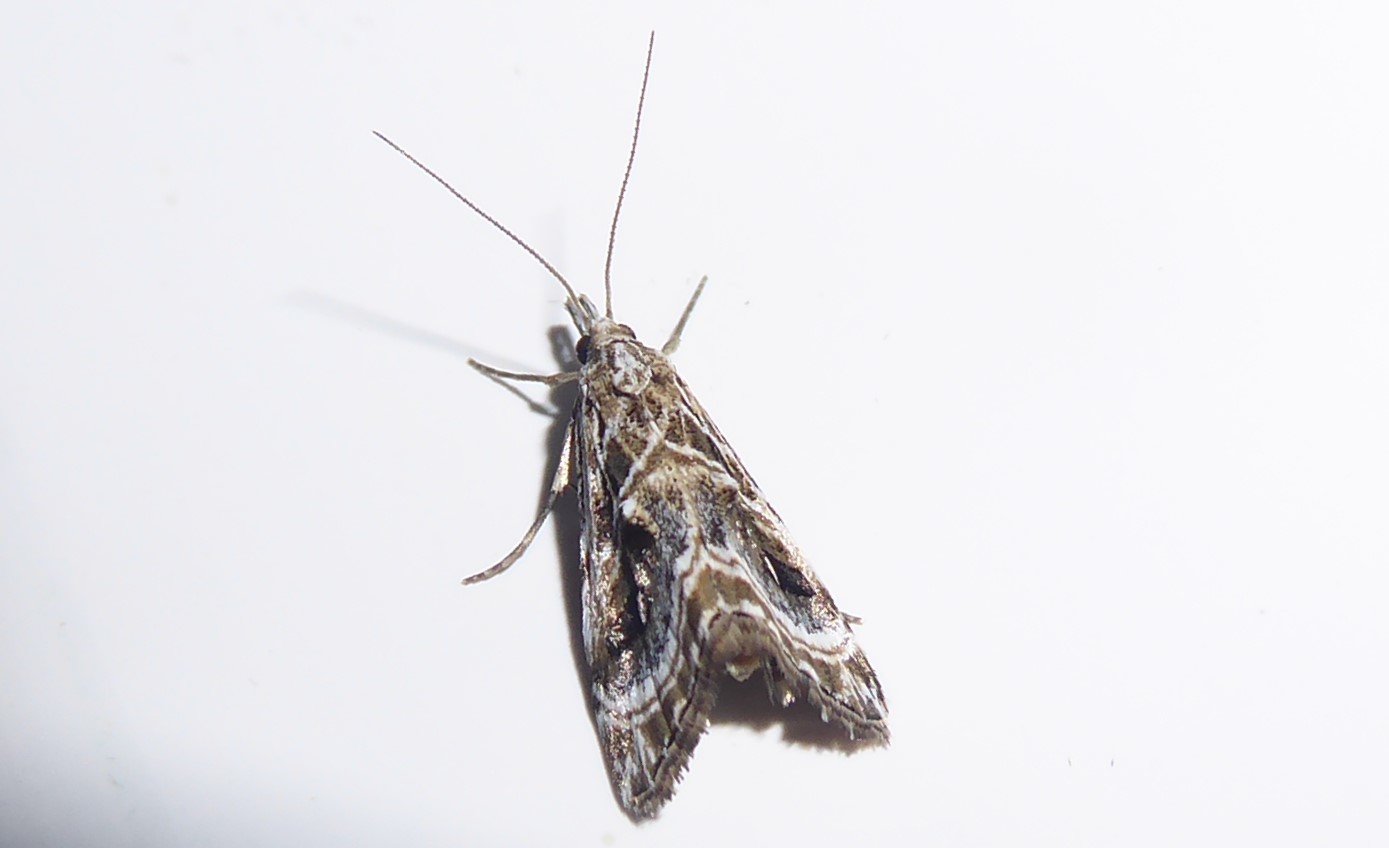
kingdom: Animalia
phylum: Arthropoda
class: Insecta
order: Lepidoptera
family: Crambidae
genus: Gadira
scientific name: Gadira acerella
